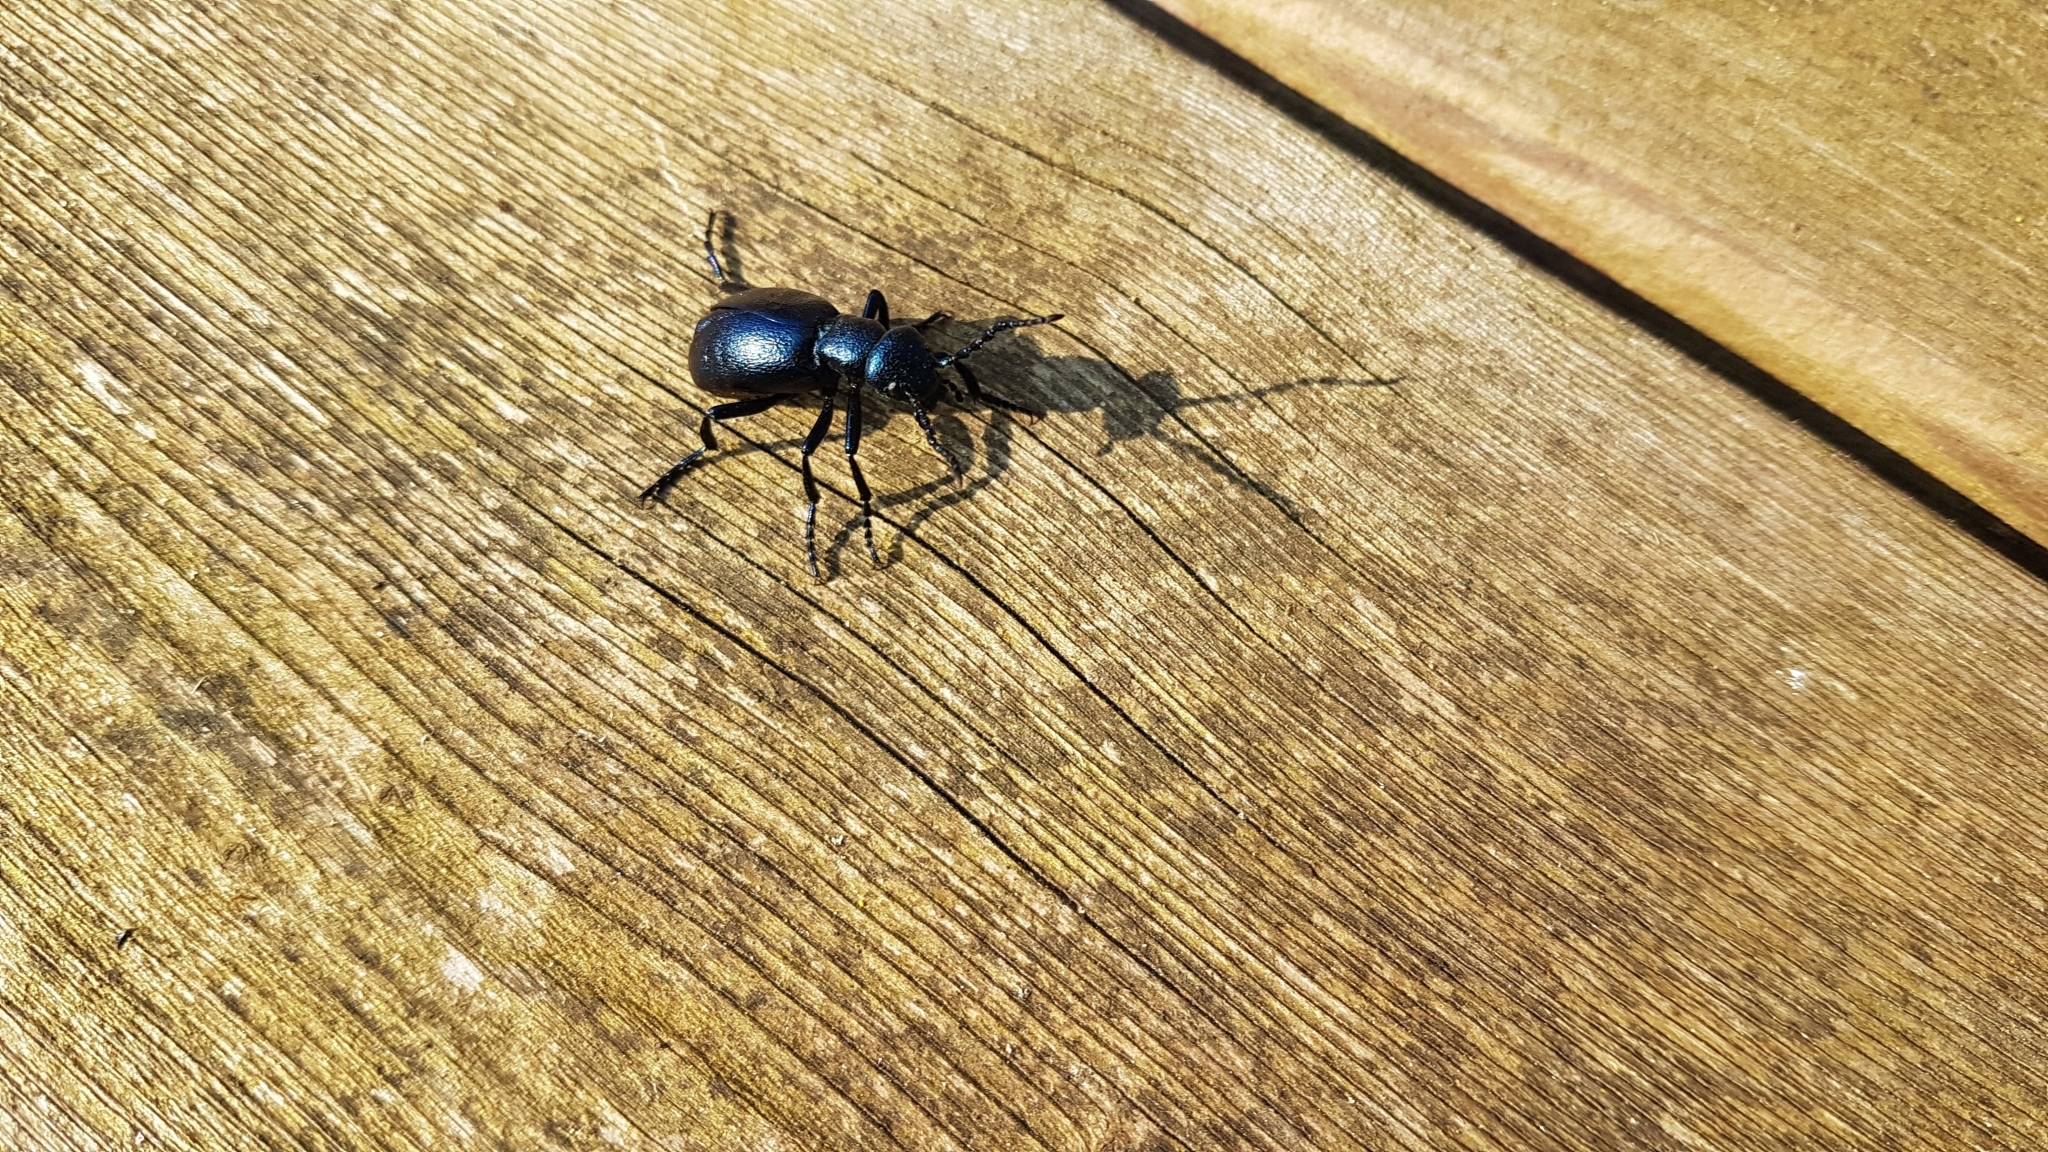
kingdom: Animalia
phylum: Arthropoda
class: Insecta
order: Coleoptera
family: Meloidae
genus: Meloe
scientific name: Meloe violaceus
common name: Violet oil-beetle
